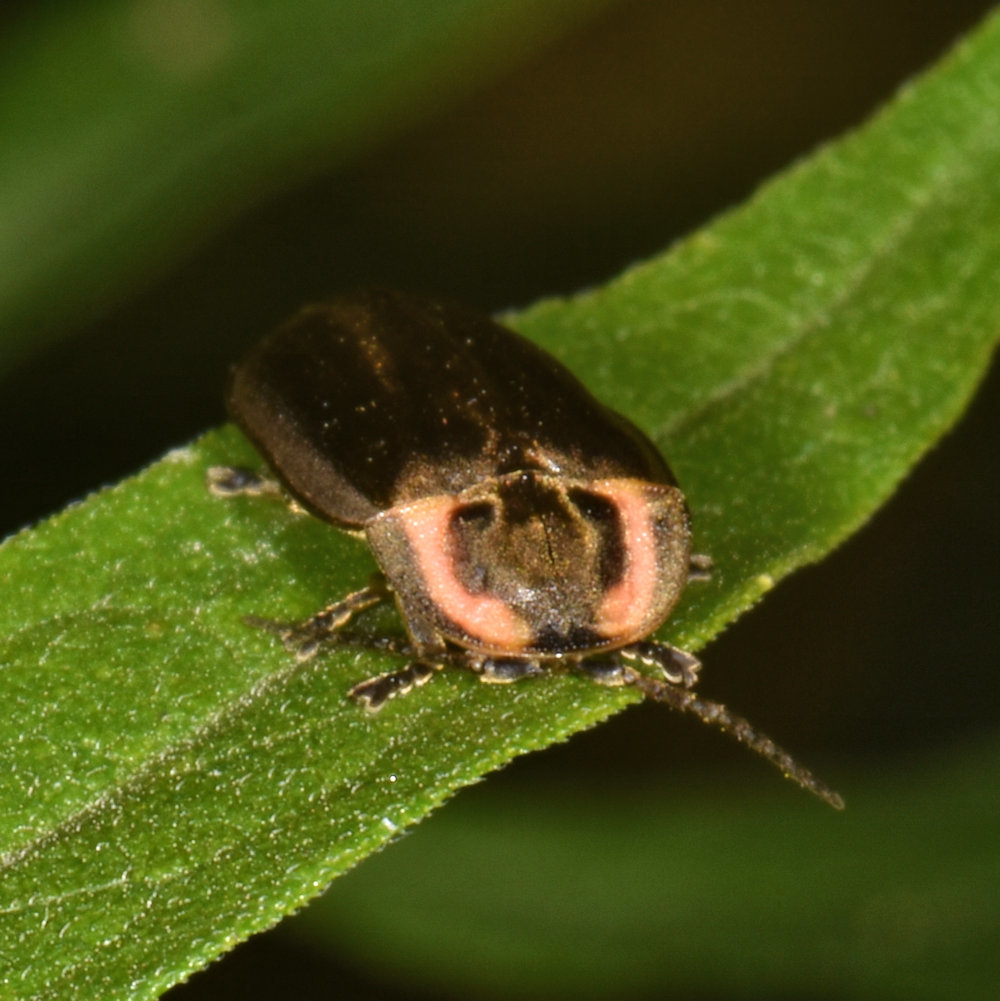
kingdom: Animalia
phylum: Arthropoda
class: Insecta
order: Coleoptera
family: Lampyridae
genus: Photinus
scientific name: Photinus corrusca
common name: Winter firefly
